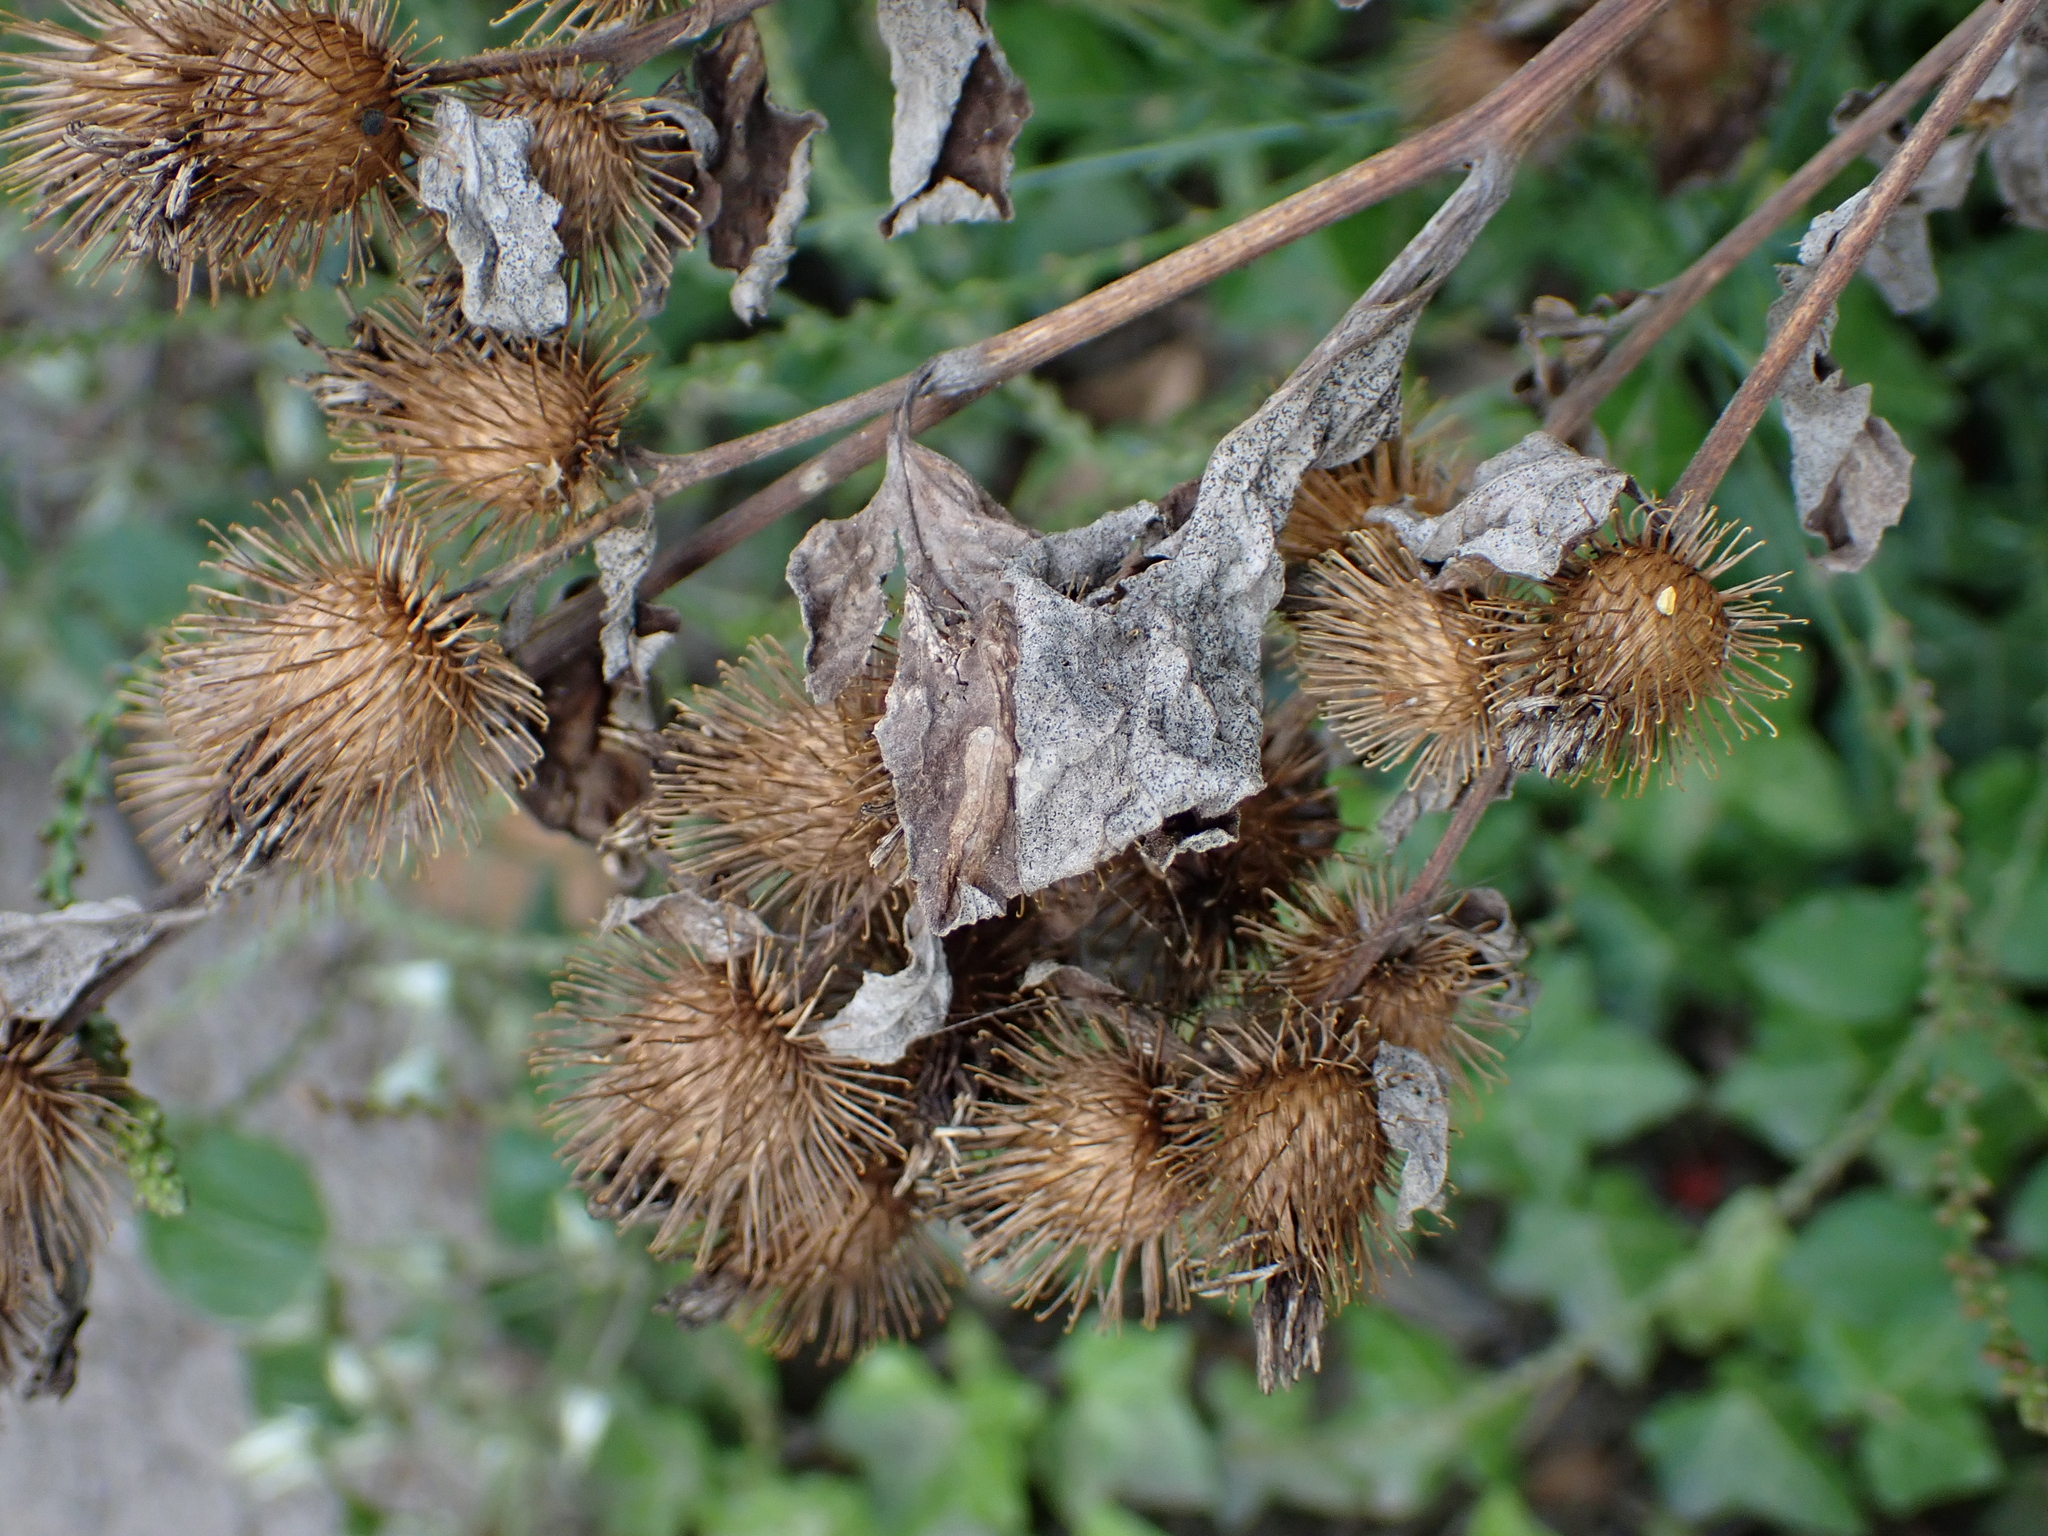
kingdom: Plantae
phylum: Tracheophyta
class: Magnoliopsida
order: Asterales
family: Asteraceae
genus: Arctium
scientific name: Arctium minus
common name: Lesser burdock
